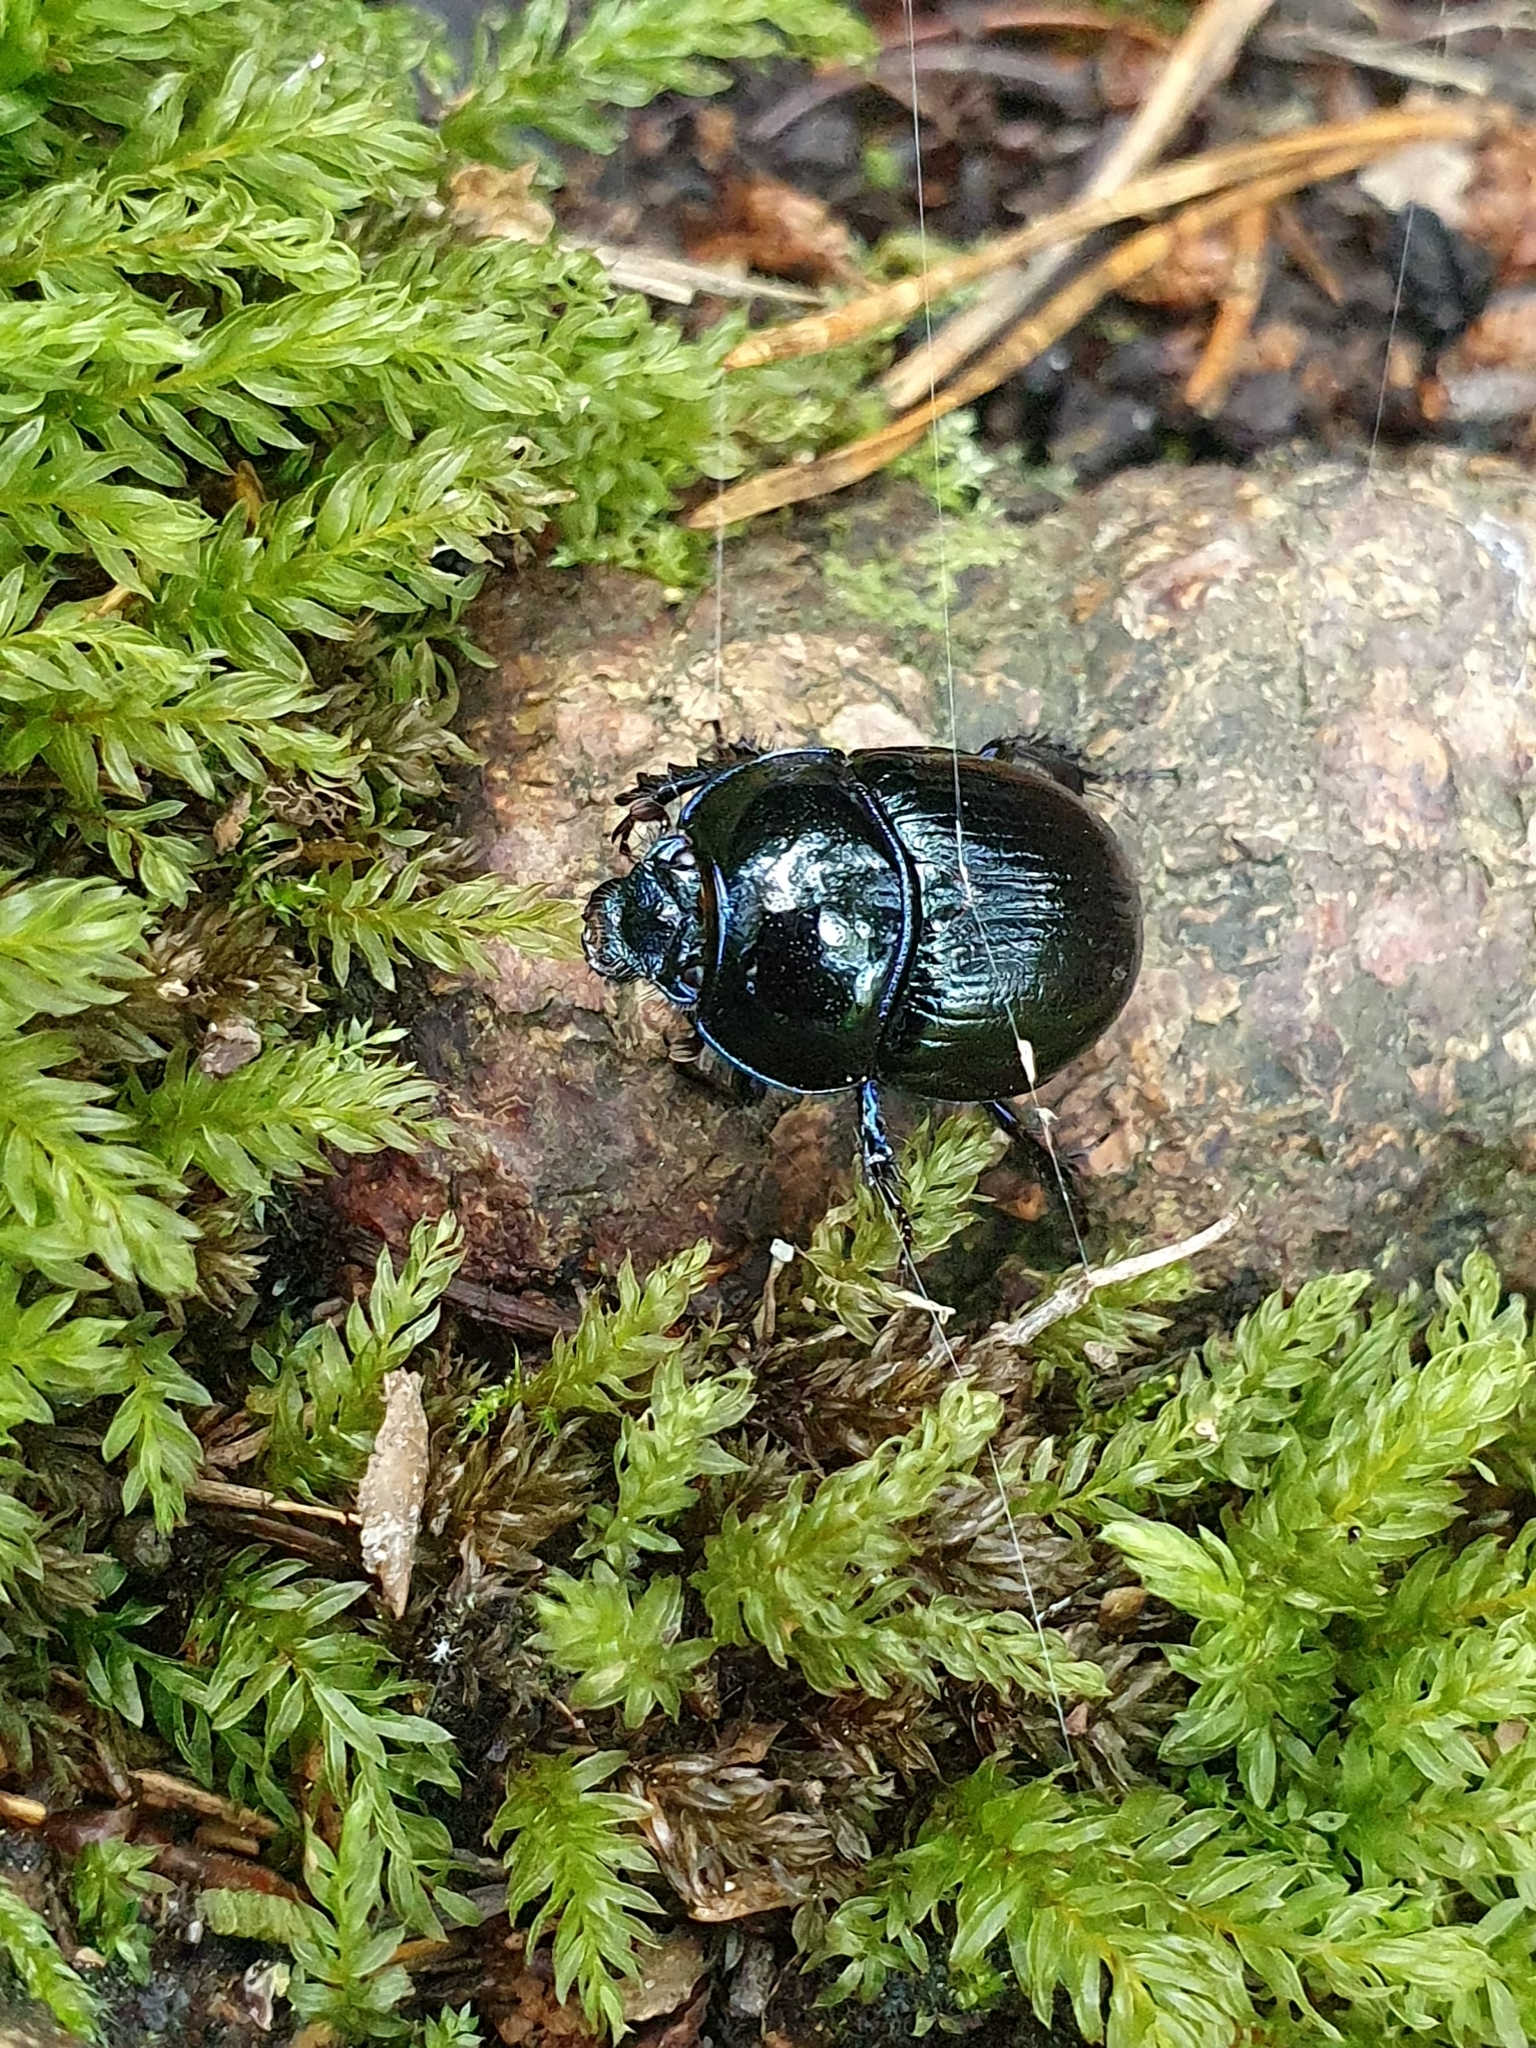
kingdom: Animalia
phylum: Arthropoda
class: Insecta
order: Coleoptera
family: Geotrupidae
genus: Anoplotrupes
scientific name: Anoplotrupes stercorosus
